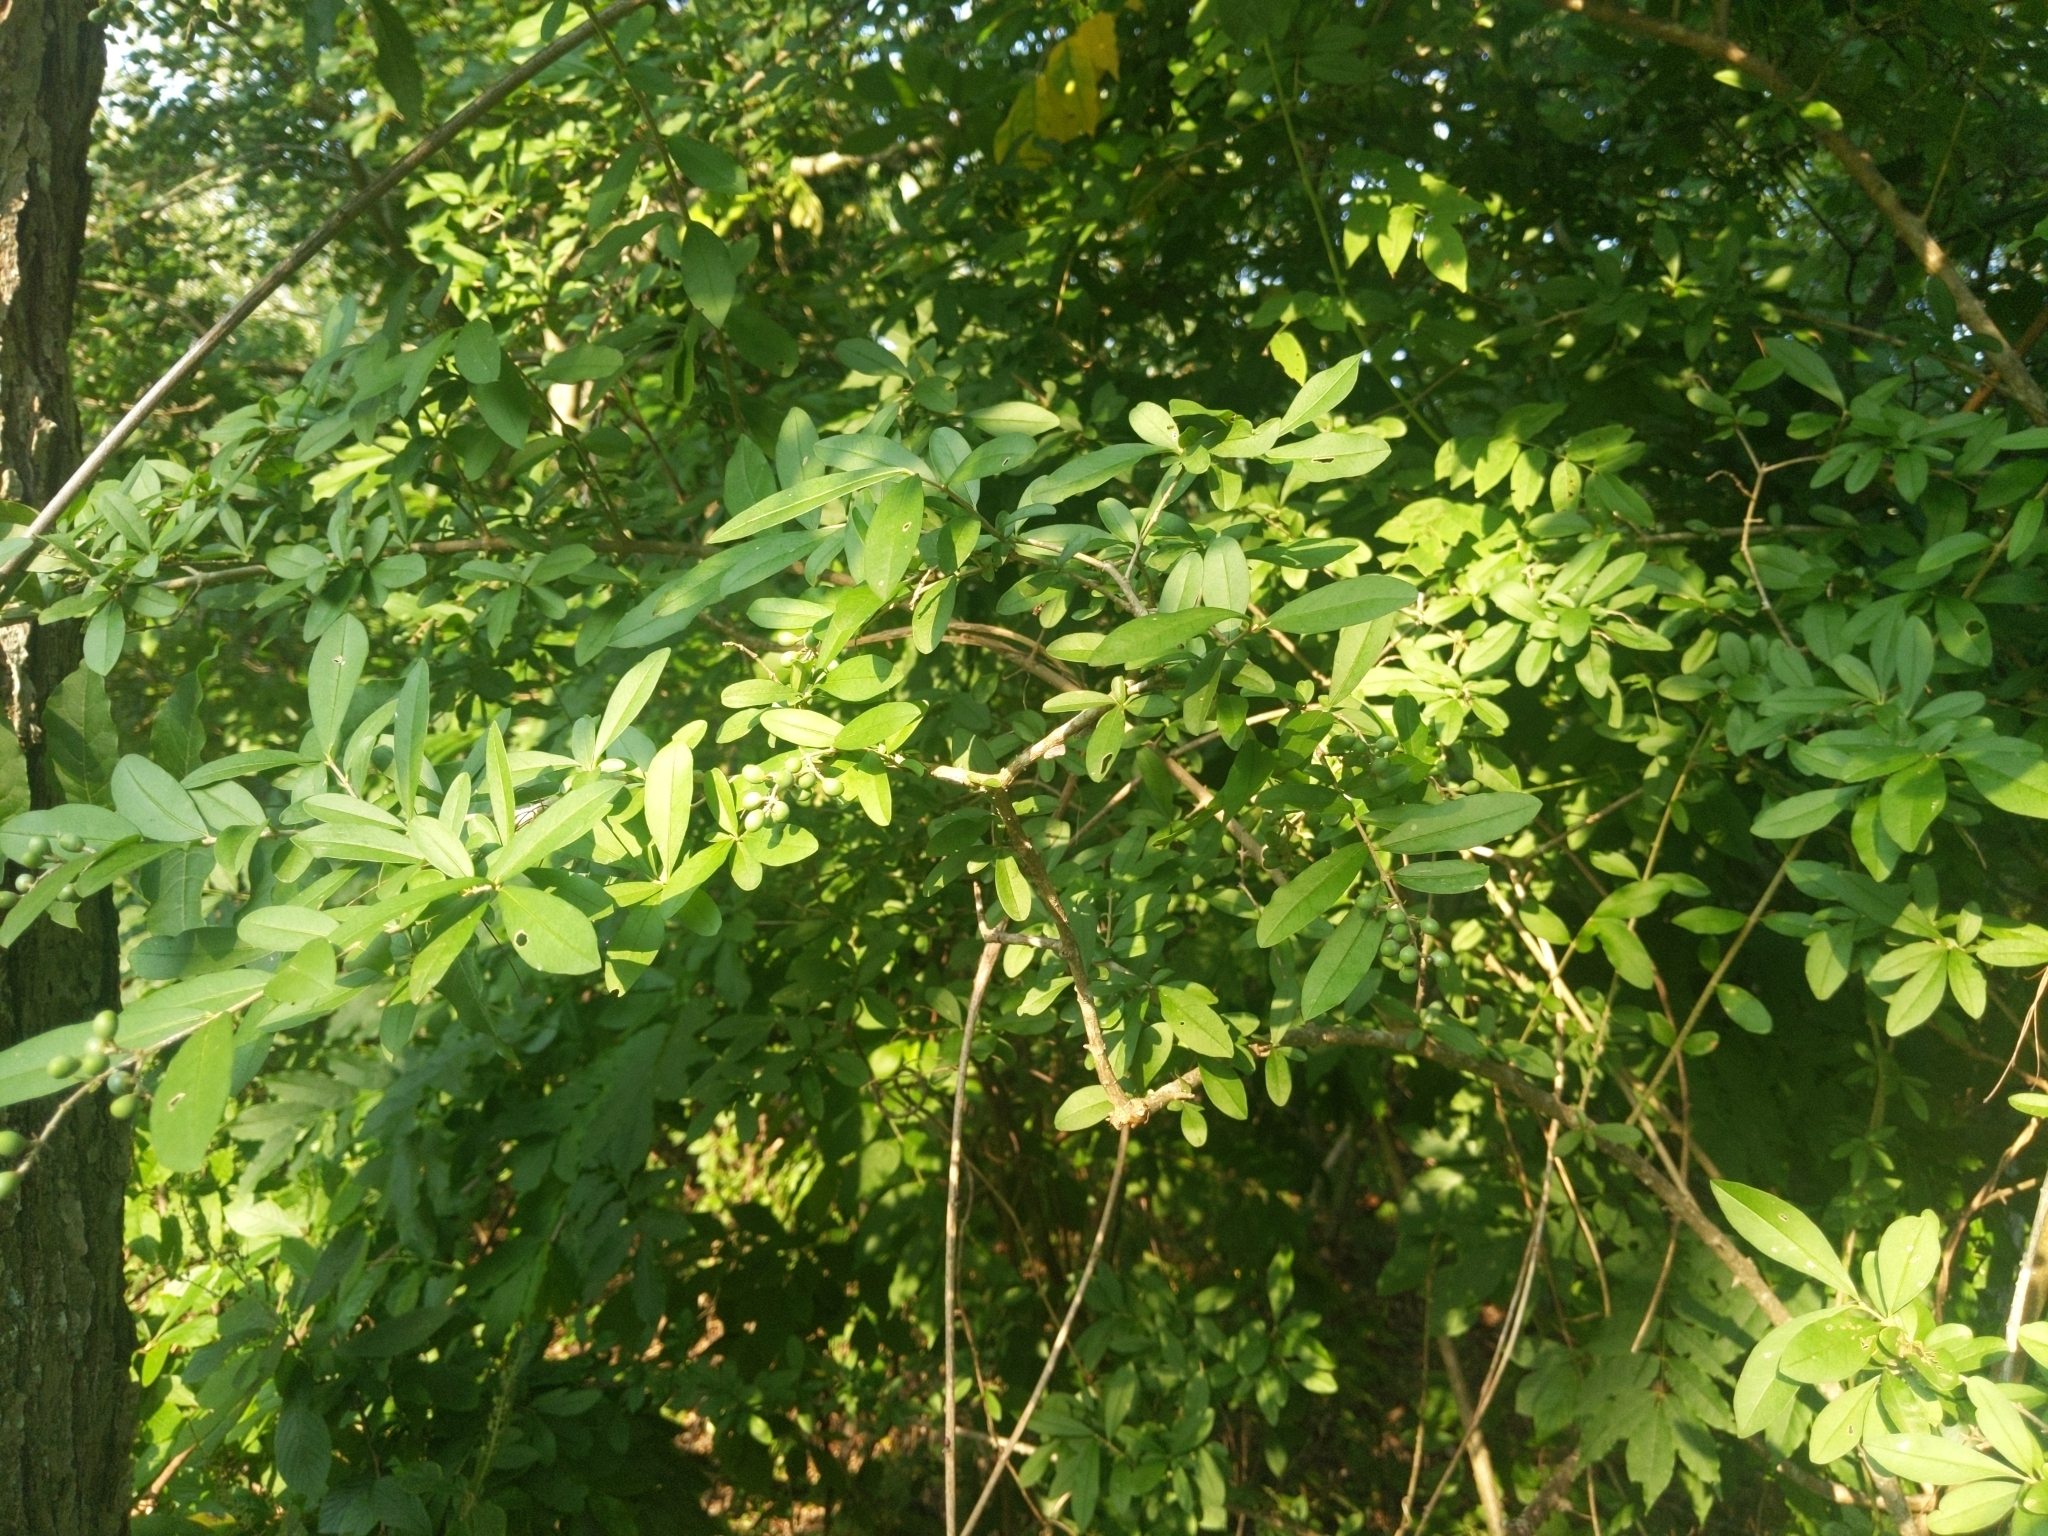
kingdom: Plantae
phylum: Tracheophyta
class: Magnoliopsida
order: Lamiales
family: Oleaceae
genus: Ligustrum
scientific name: Ligustrum obtusifolium
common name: Border privet
